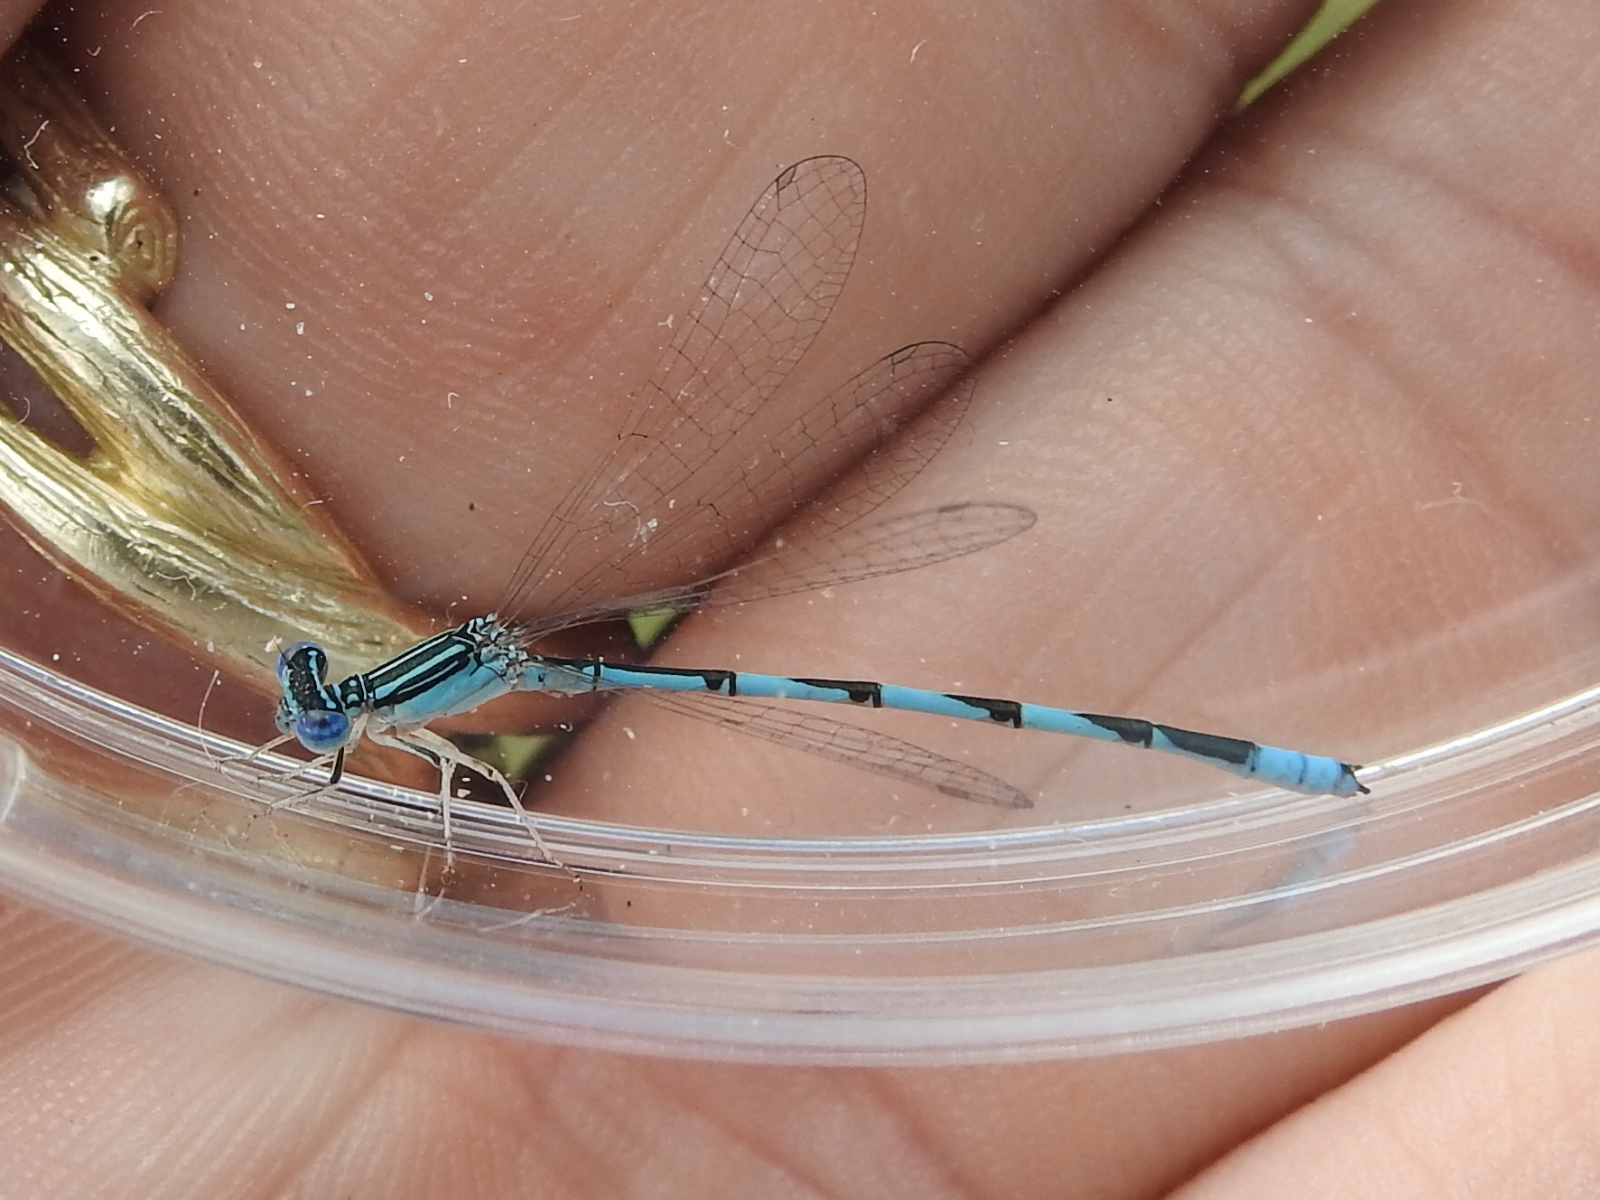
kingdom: Animalia
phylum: Arthropoda
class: Insecta
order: Odonata
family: Coenagrionidae
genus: Enallagma
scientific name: Enallagma basidens
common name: Double-striped bluet
